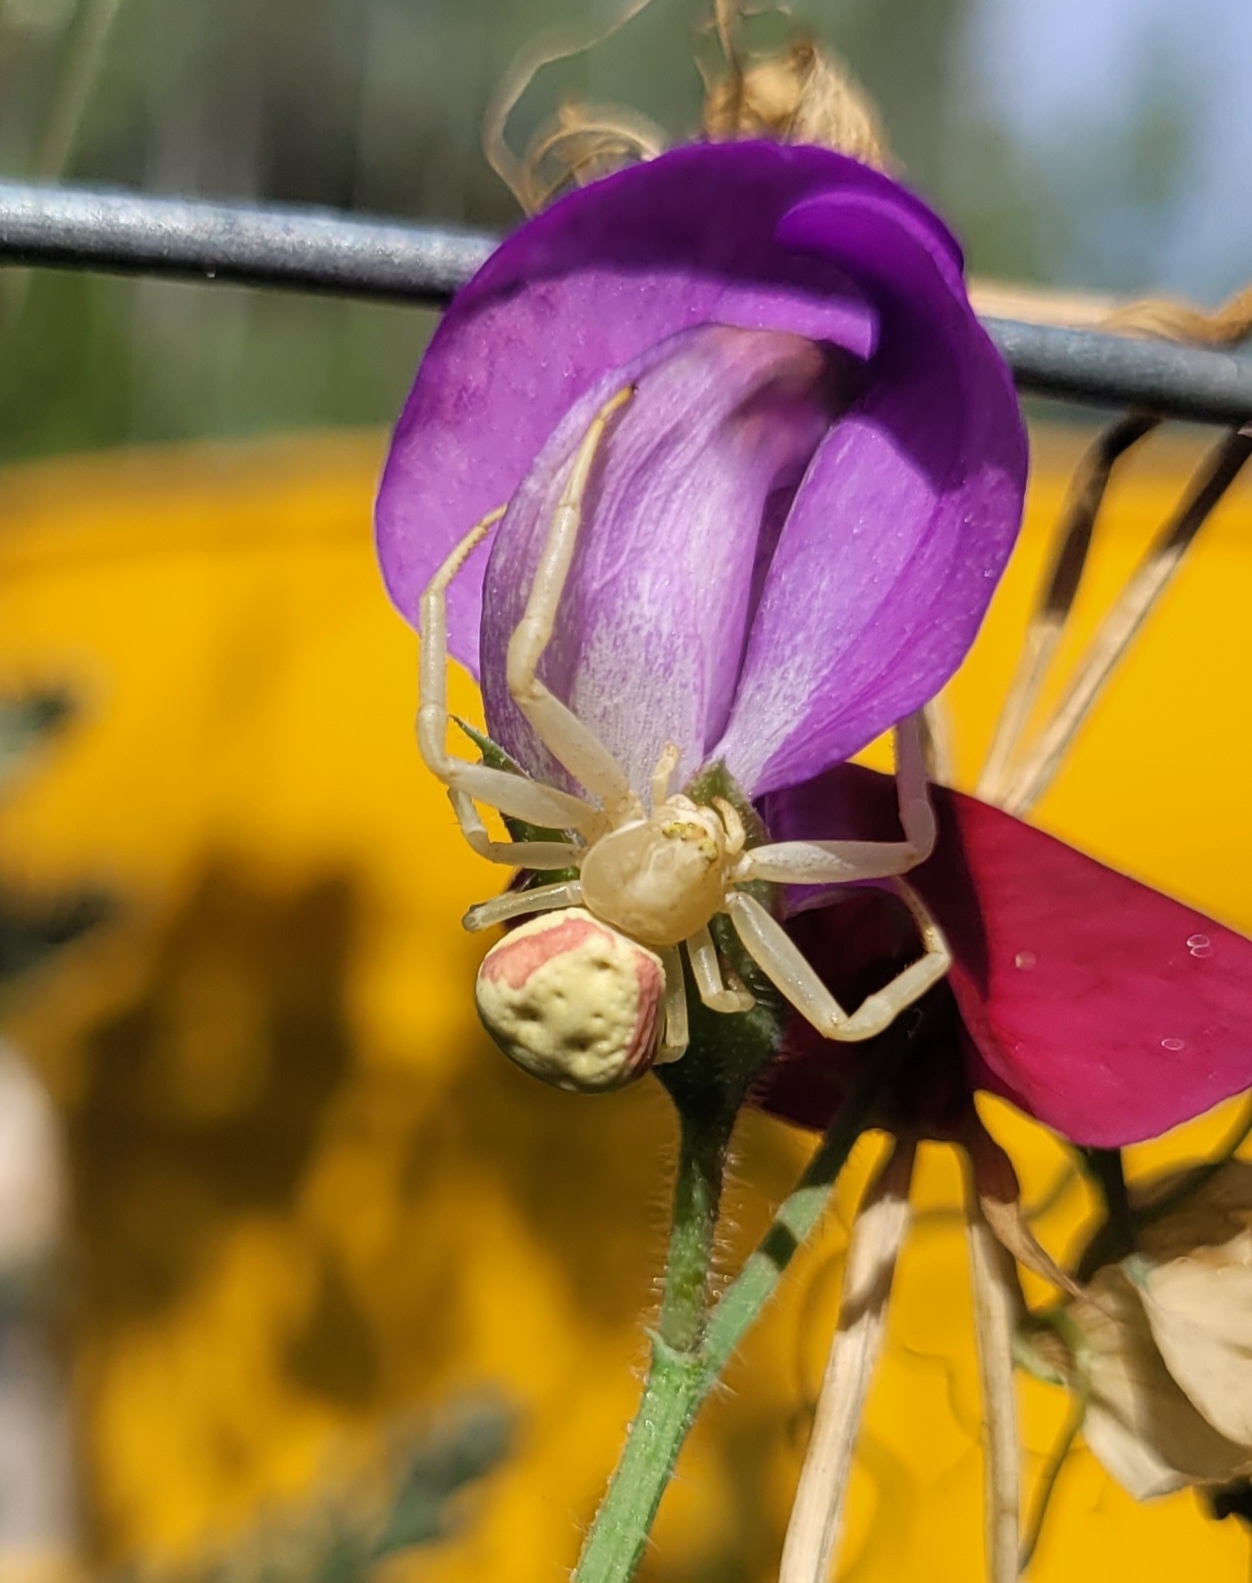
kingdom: Animalia
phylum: Arthropoda
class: Arachnida
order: Araneae
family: Thomisidae
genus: Misumena
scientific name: Misumena vatia
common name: Goldenrod crab spider
